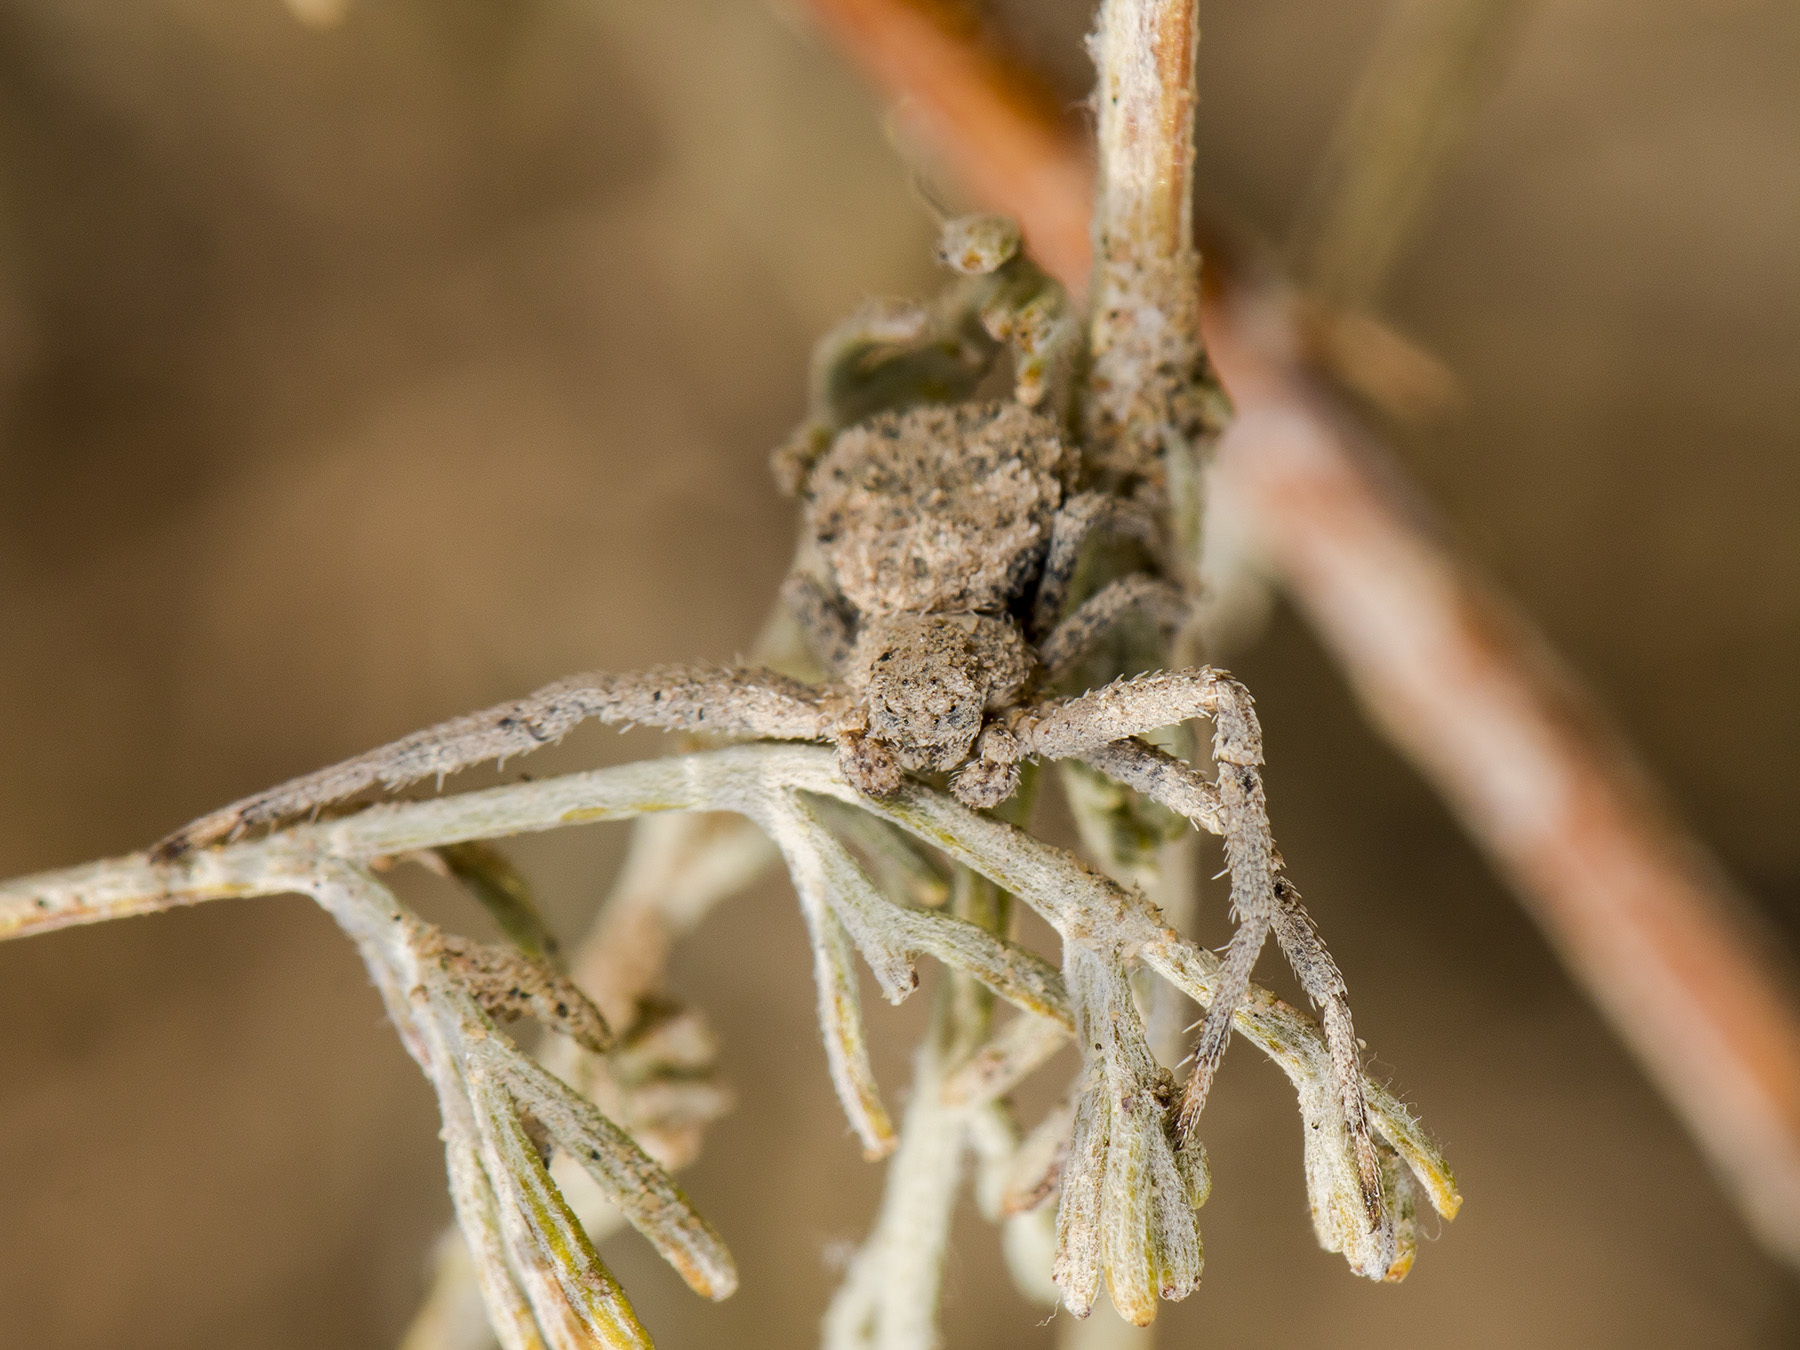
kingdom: Animalia
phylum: Arthropoda
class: Arachnida
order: Araneae
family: Thomisidae
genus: Ozyptila
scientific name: Ozyptila lugubris
